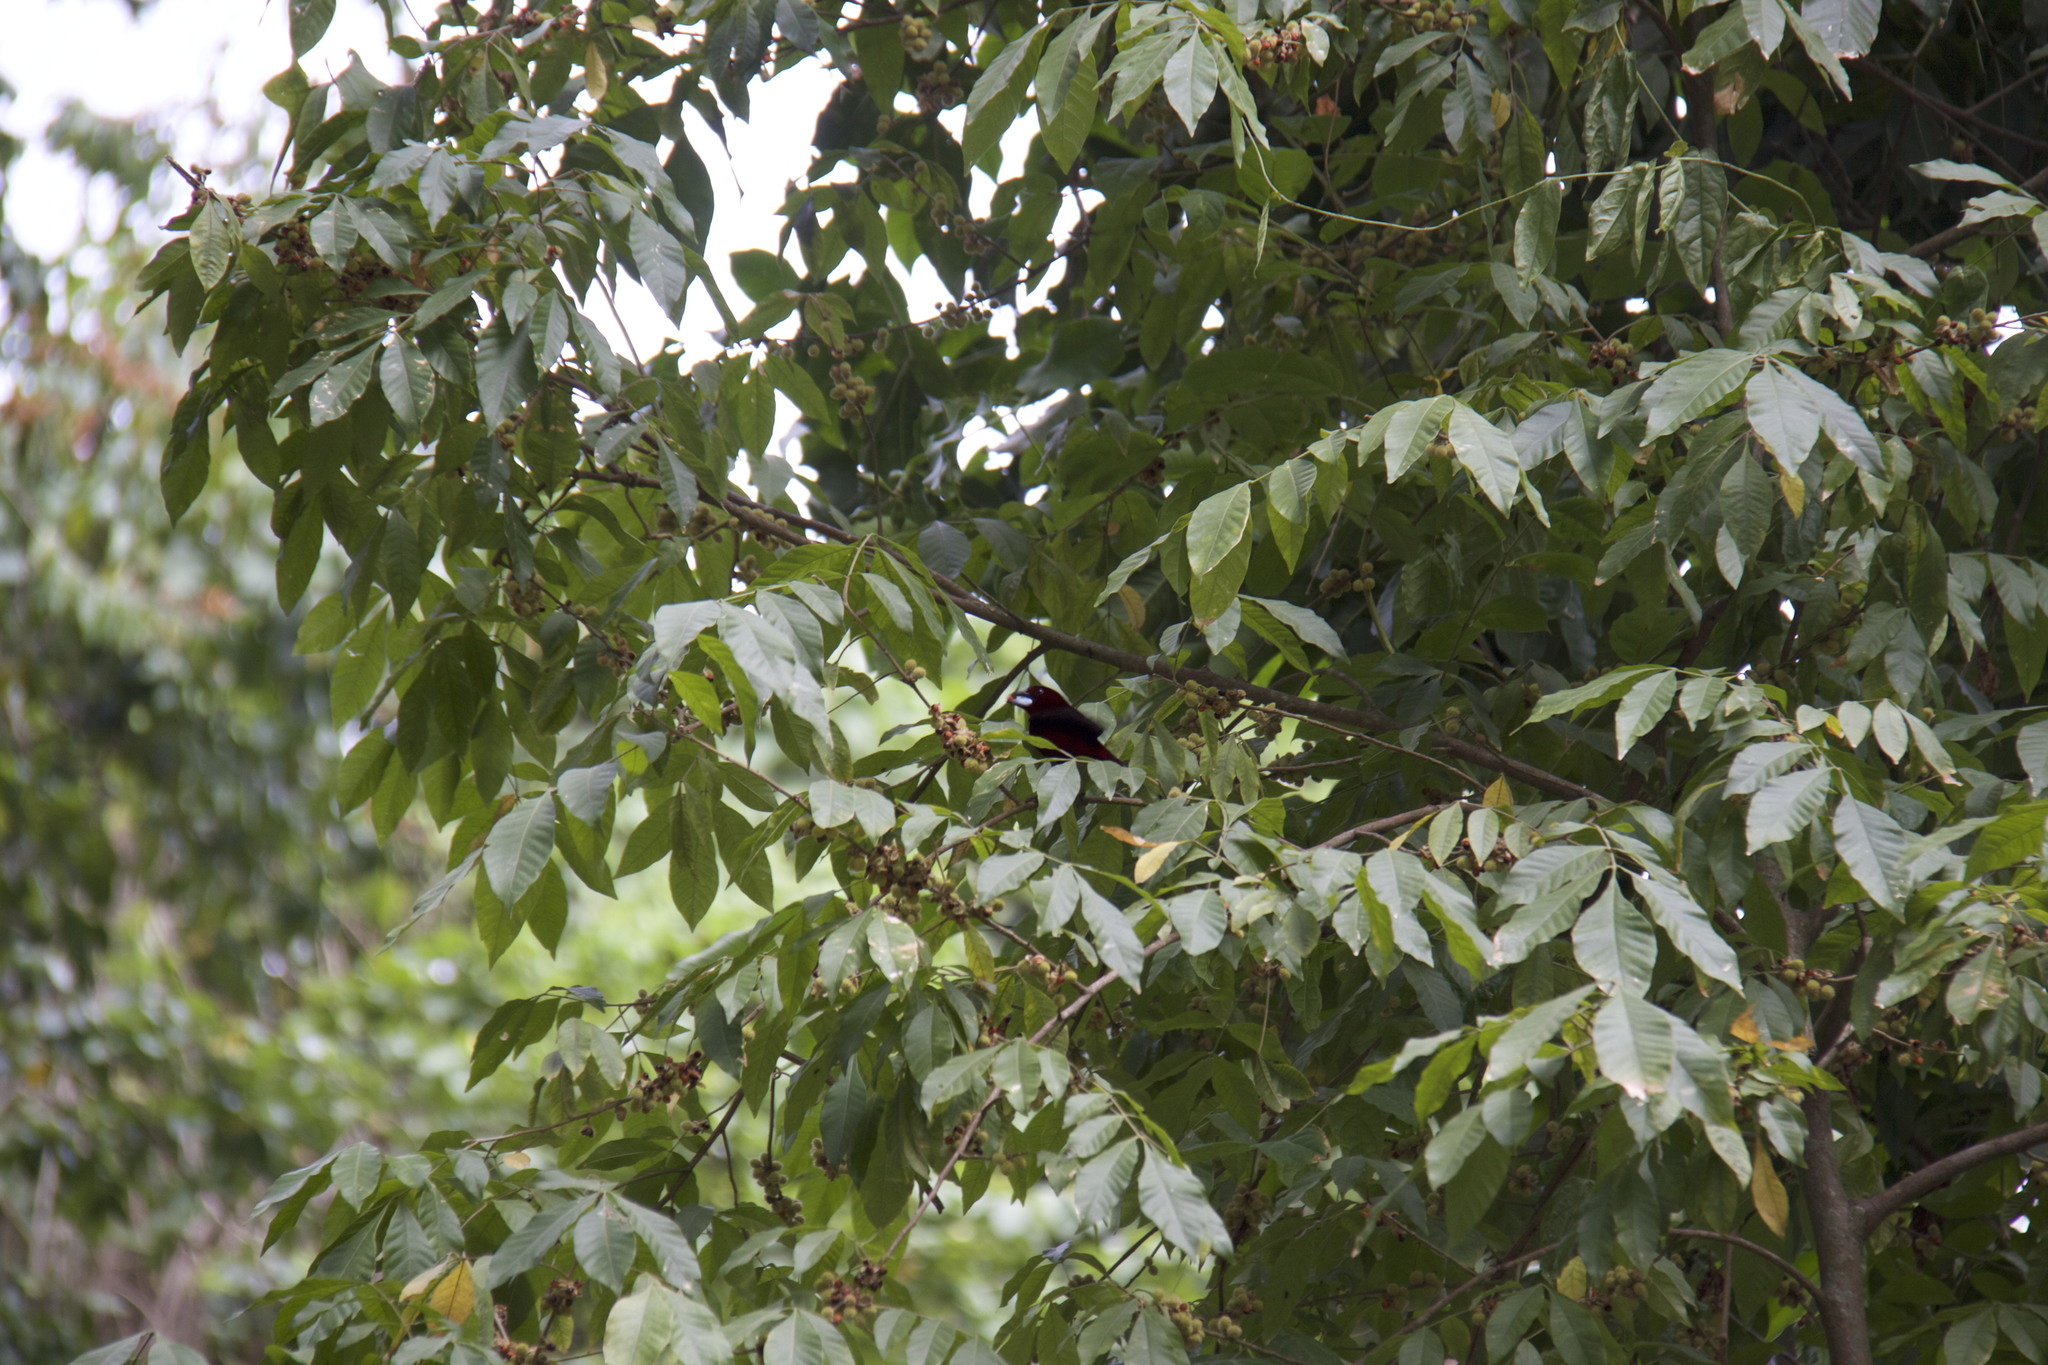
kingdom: Animalia
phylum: Chordata
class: Aves
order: Passeriformes
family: Thraupidae
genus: Ramphocelus
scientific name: Ramphocelus carbo
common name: Silver-beaked tanager
